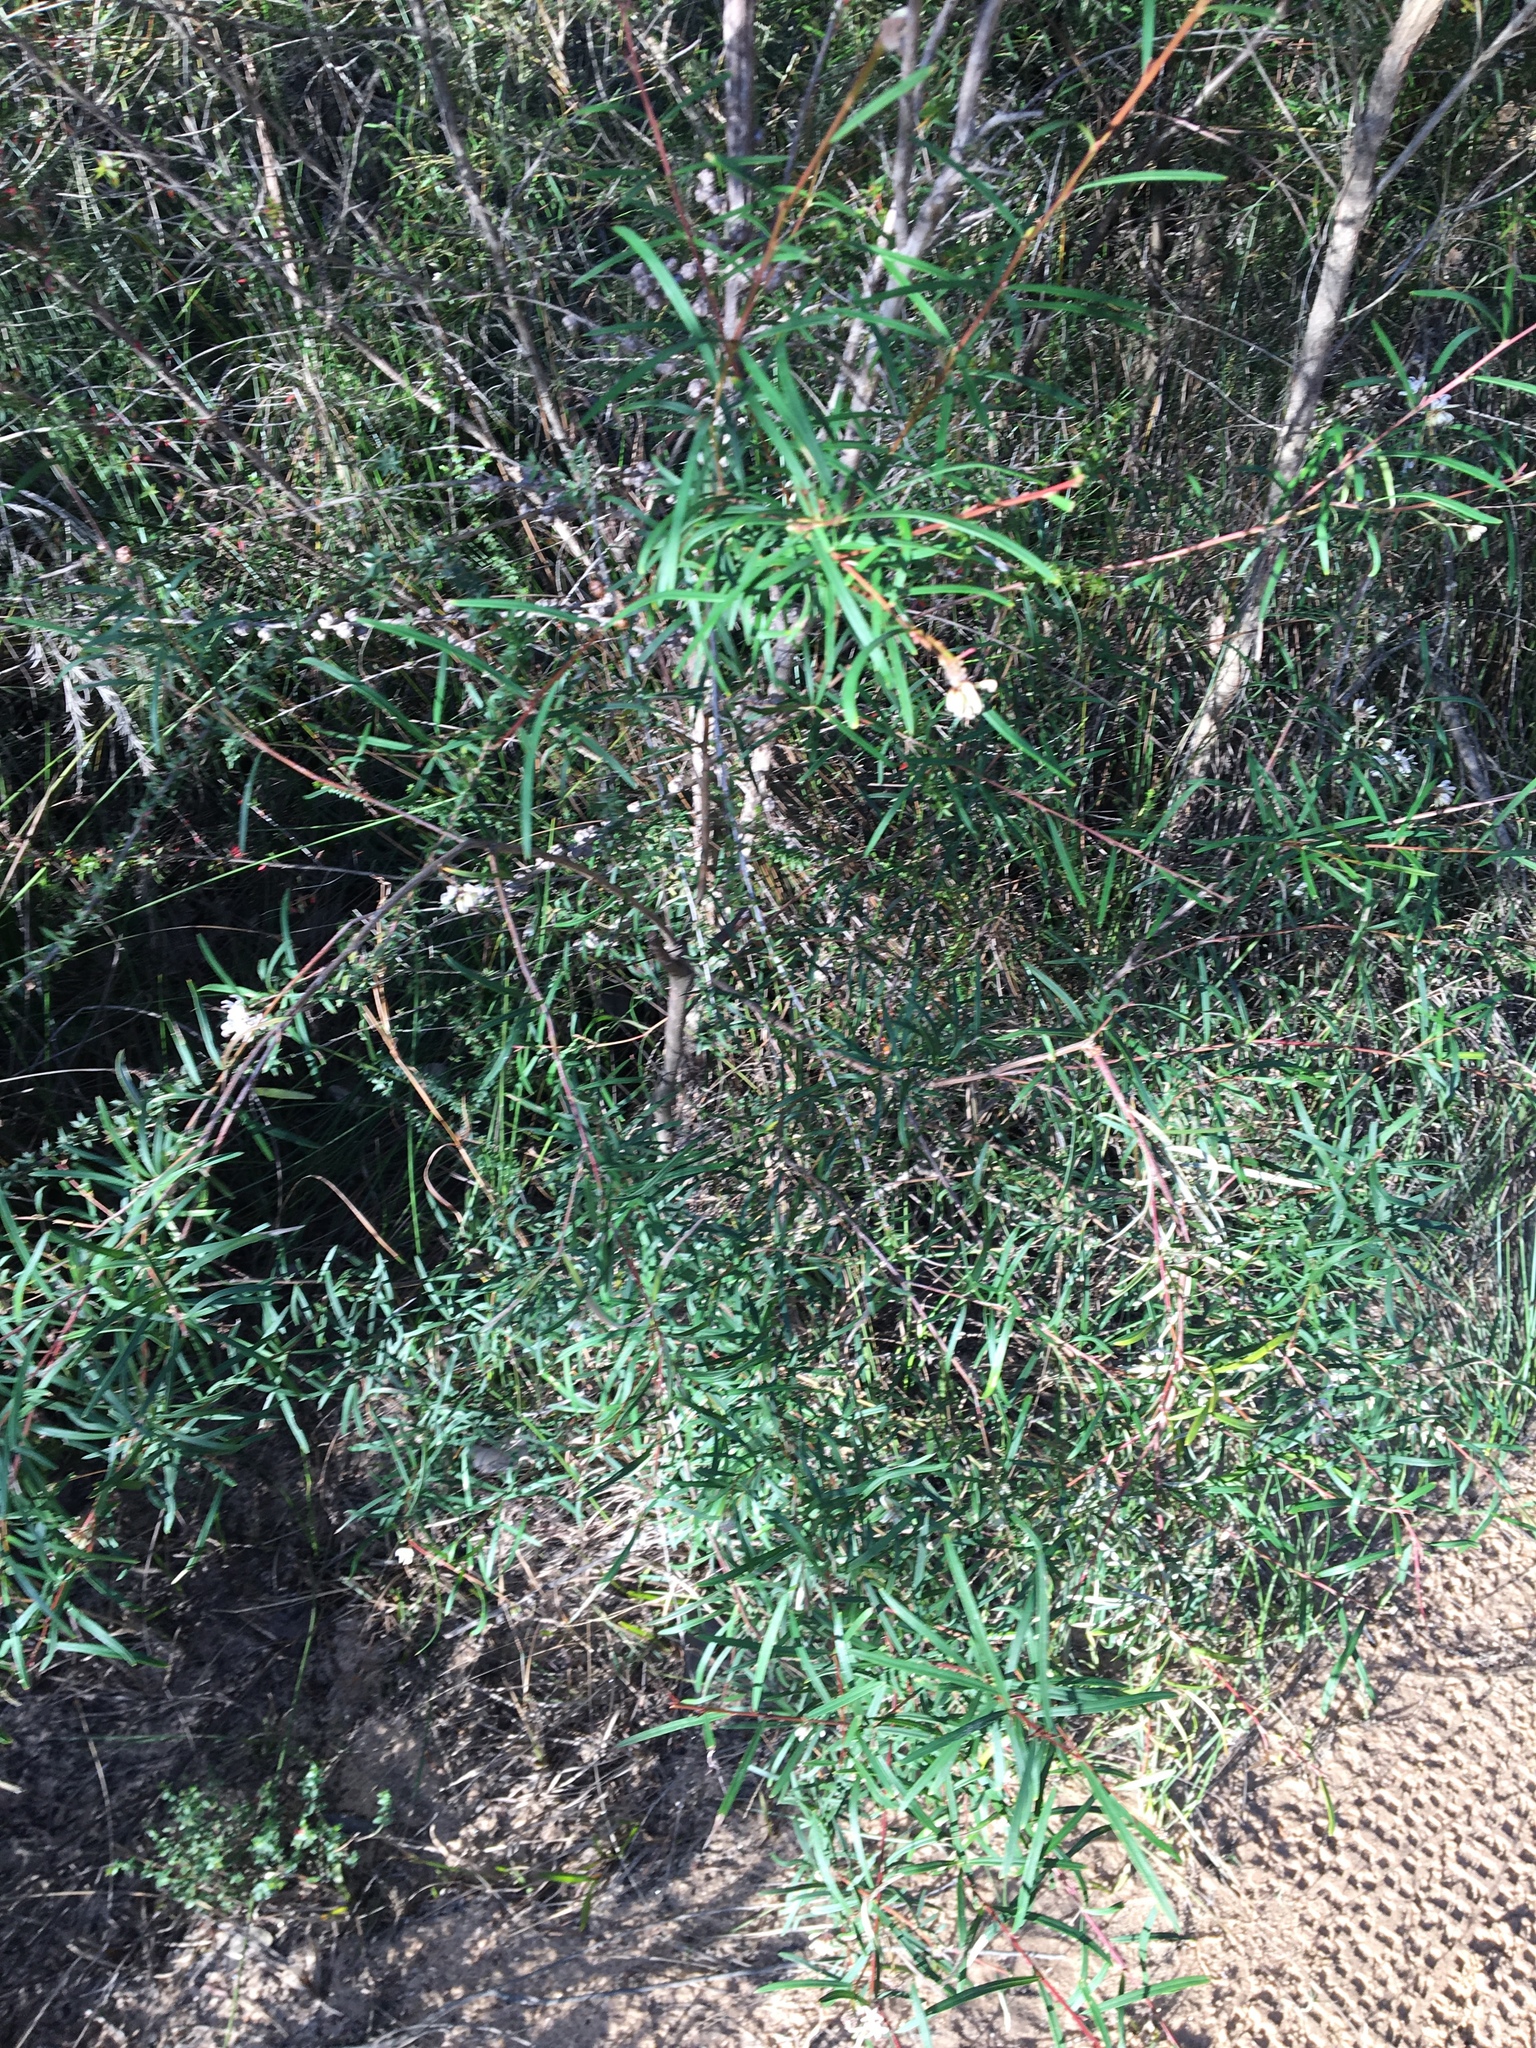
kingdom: Plantae
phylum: Tracheophyta
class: Magnoliopsida
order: Proteales
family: Proteaceae
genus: Grevillea
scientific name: Grevillea linearifolia
